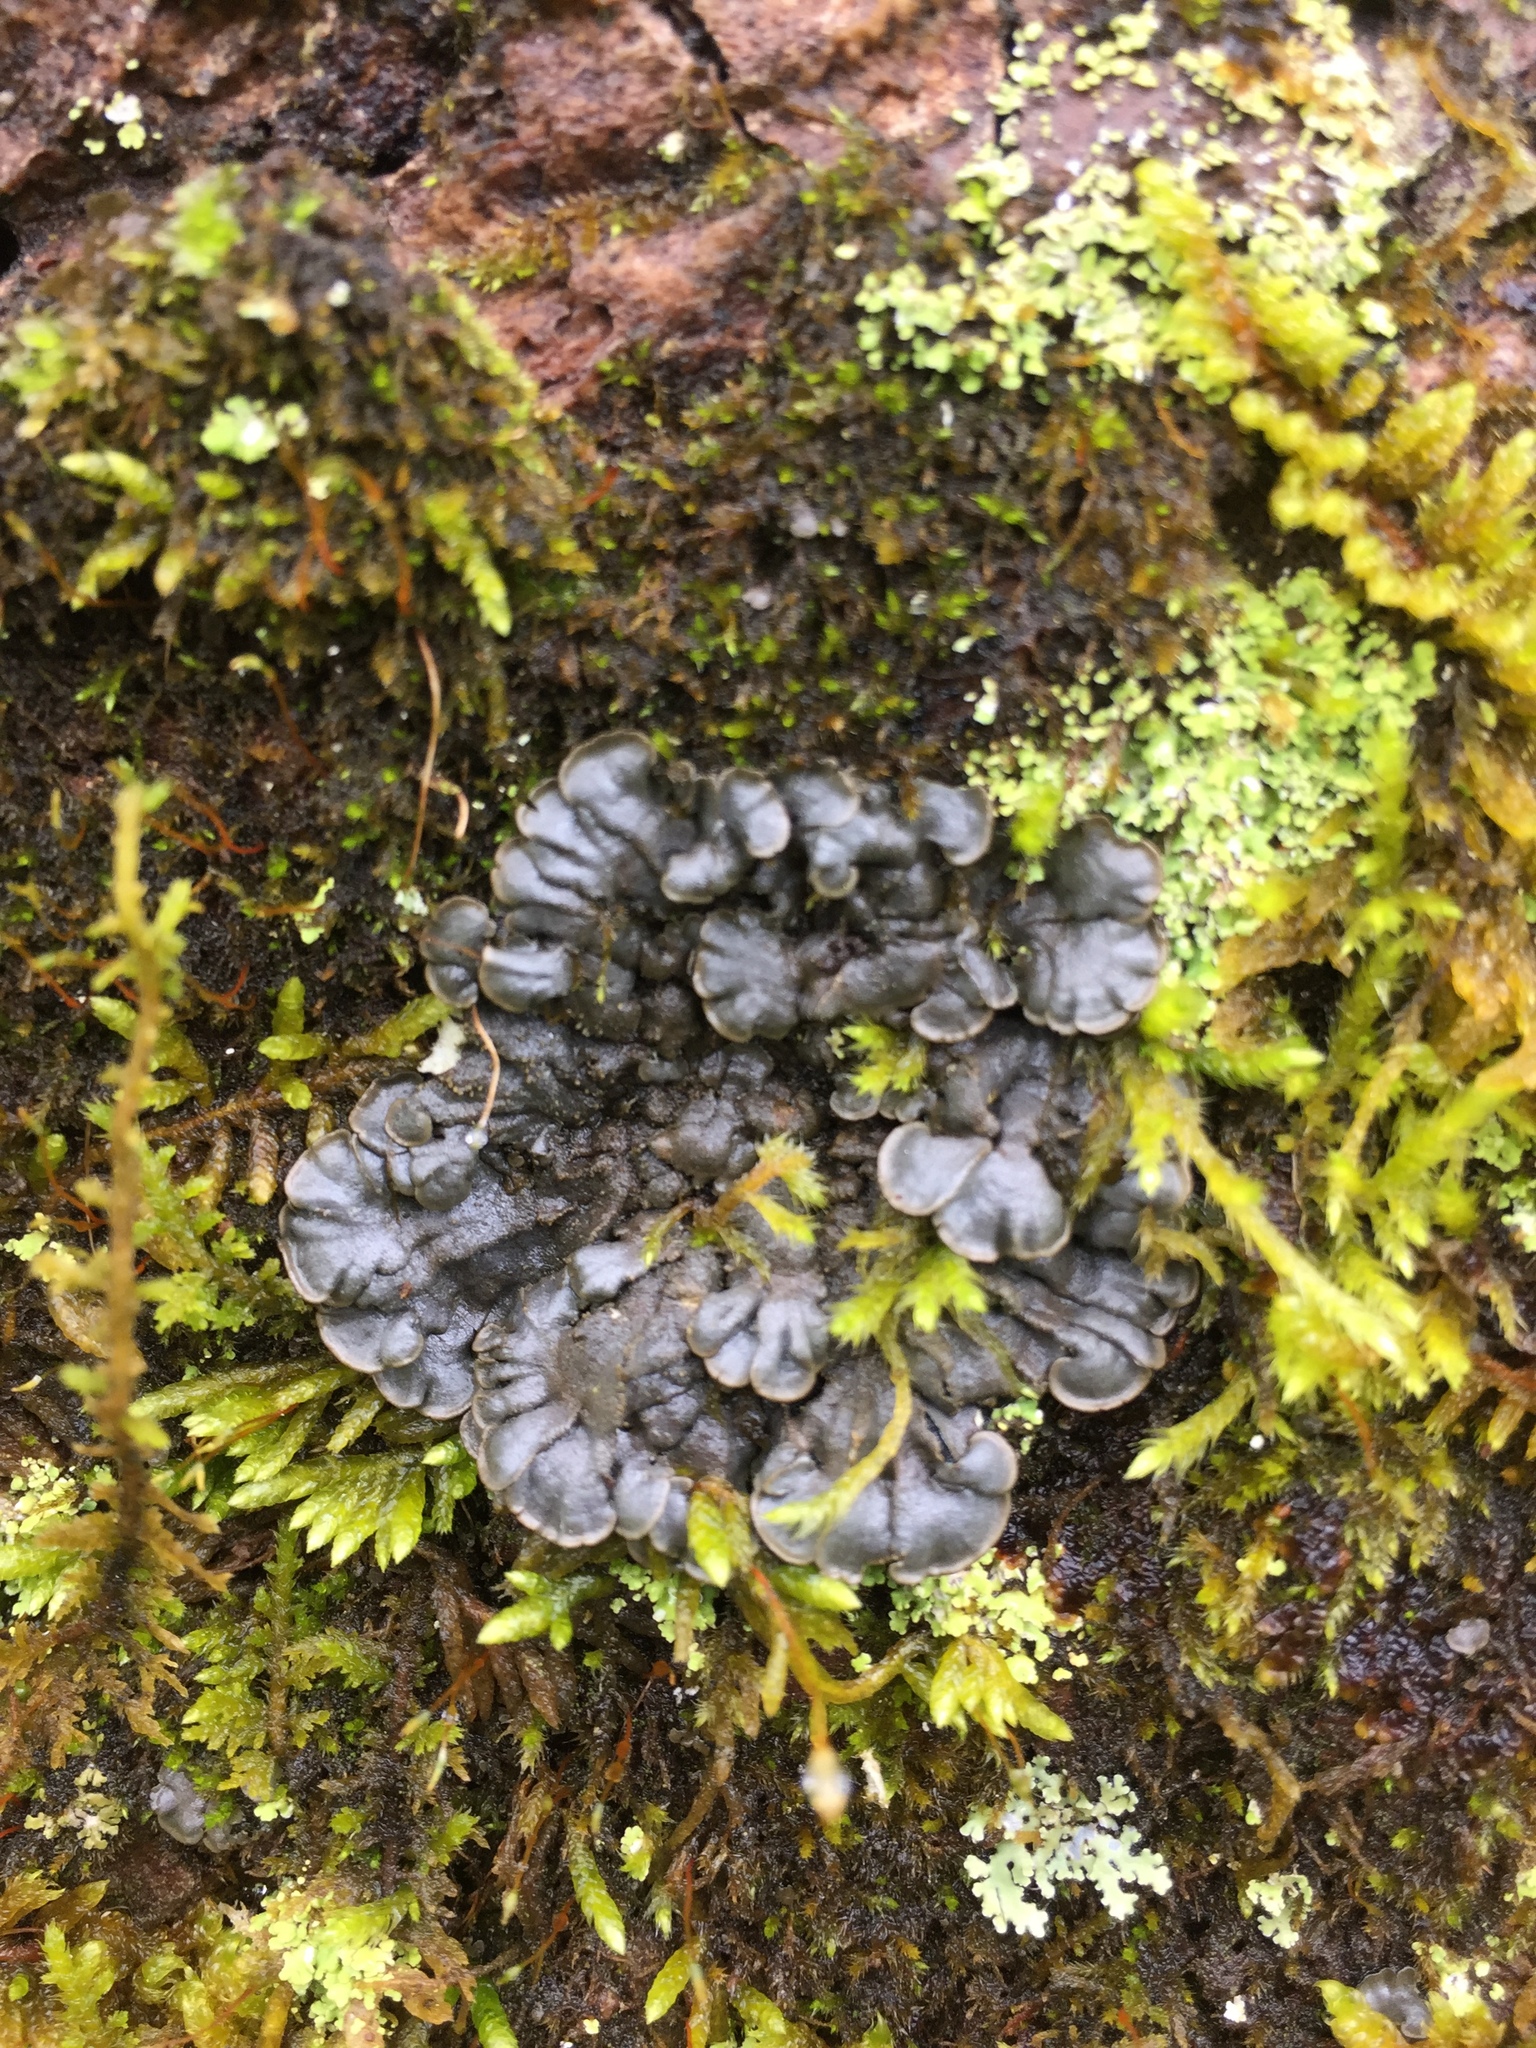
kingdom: Fungi
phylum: Ascomycota
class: Lecanoromycetes
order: Peltigerales
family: Coccocarpiaceae
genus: Coccocarpia
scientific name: Coccocarpia palmicola
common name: Salted shell lichen
